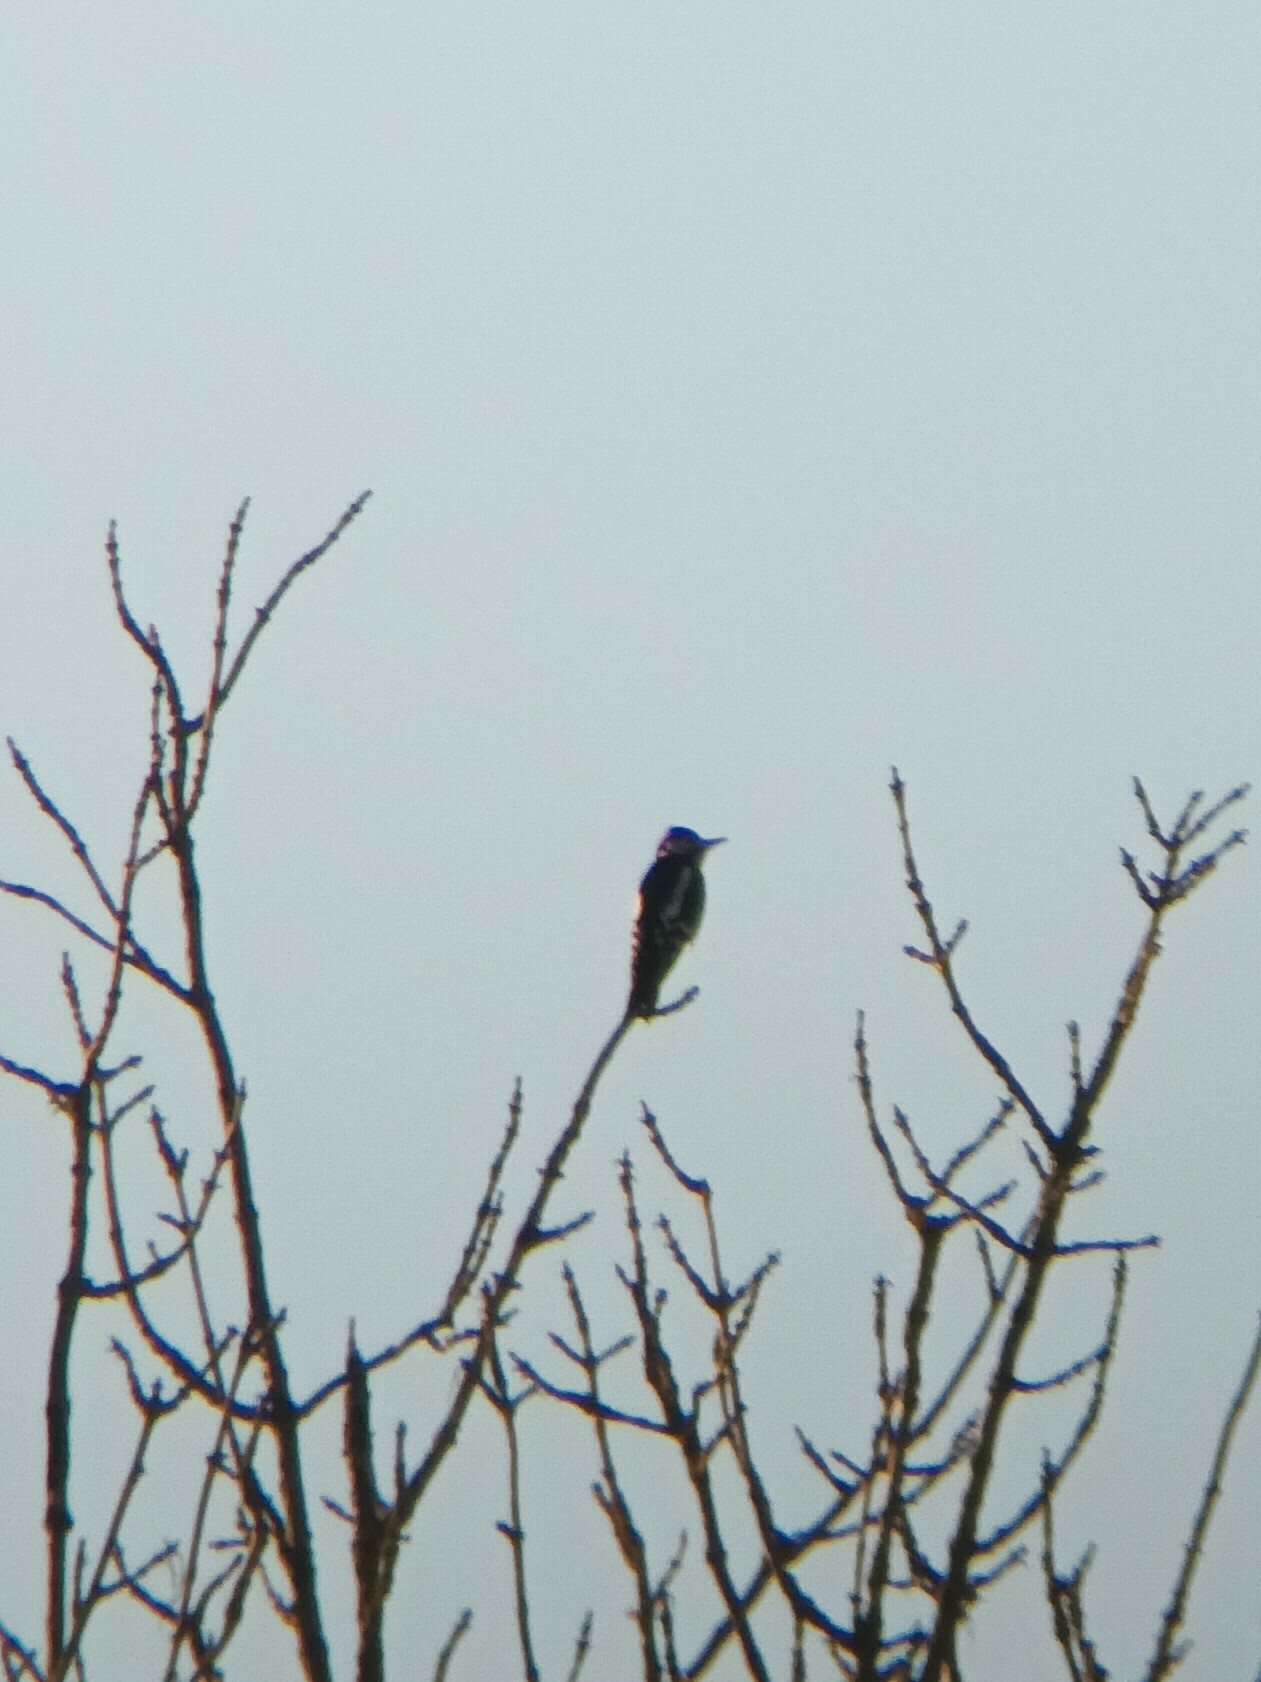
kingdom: Animalia
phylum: Chordata
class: Aves
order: Piciformes
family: Picidae
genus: Dendrocopos
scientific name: Dendrocopos major
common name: Great spotted woodpecker
